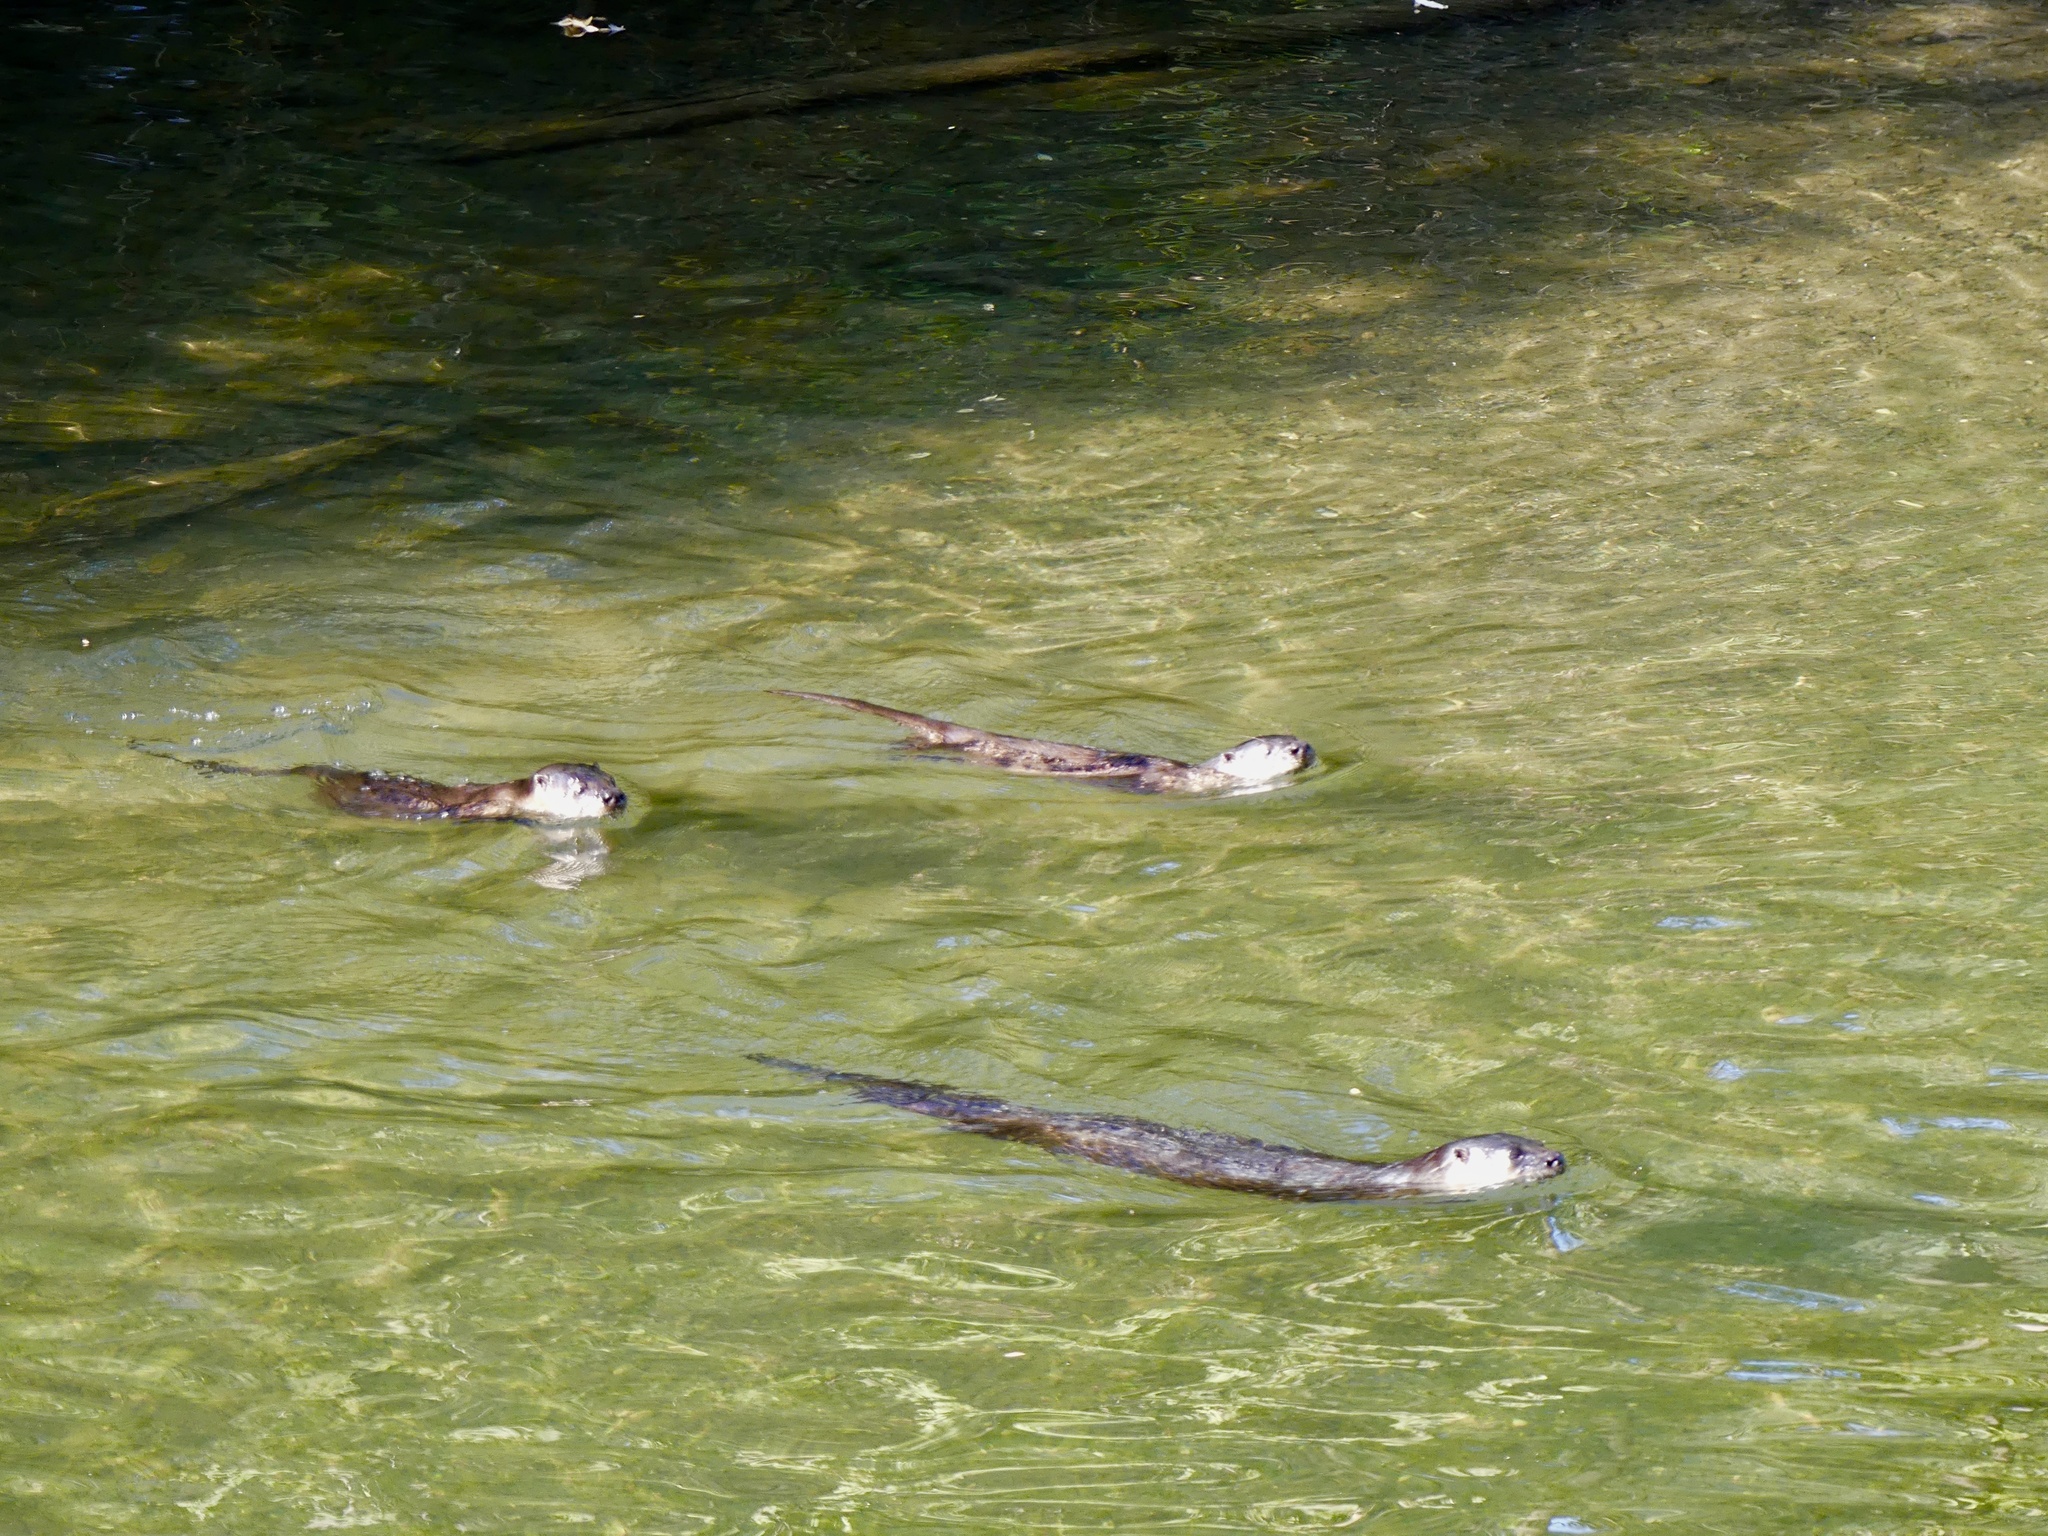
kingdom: Animalia
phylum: Chordata
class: Mammalia
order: Carnivora
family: Mustelidae
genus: Lontra
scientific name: Lontra canadensis
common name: North american river otter
